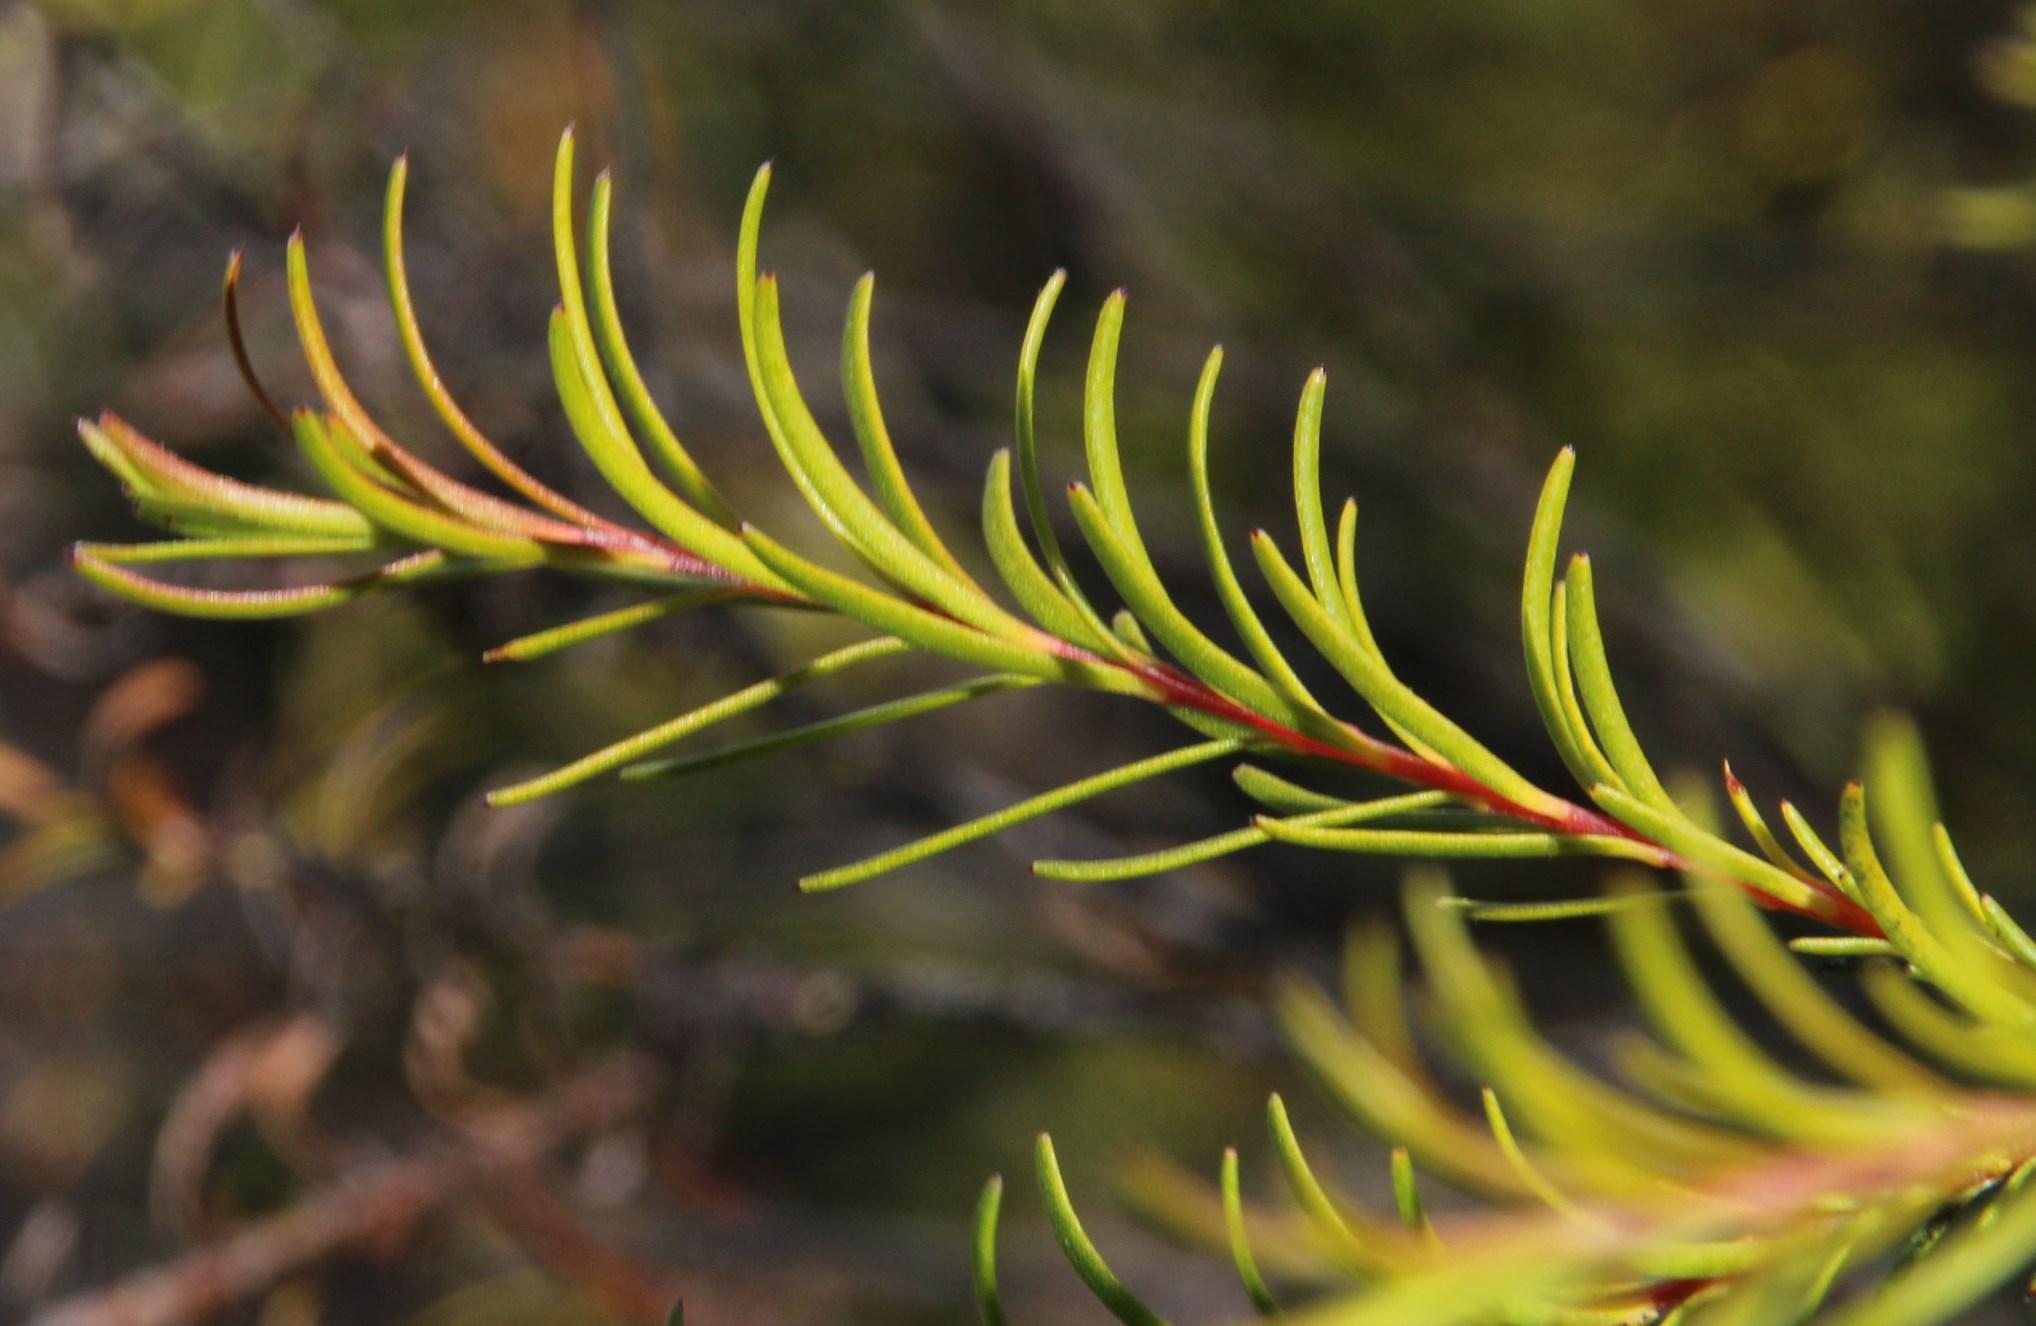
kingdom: Plantae
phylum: Tracheophyta
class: Magnoliopsida
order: Bruniales
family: Bruniaceae
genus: Brunia
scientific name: Brunia africana
